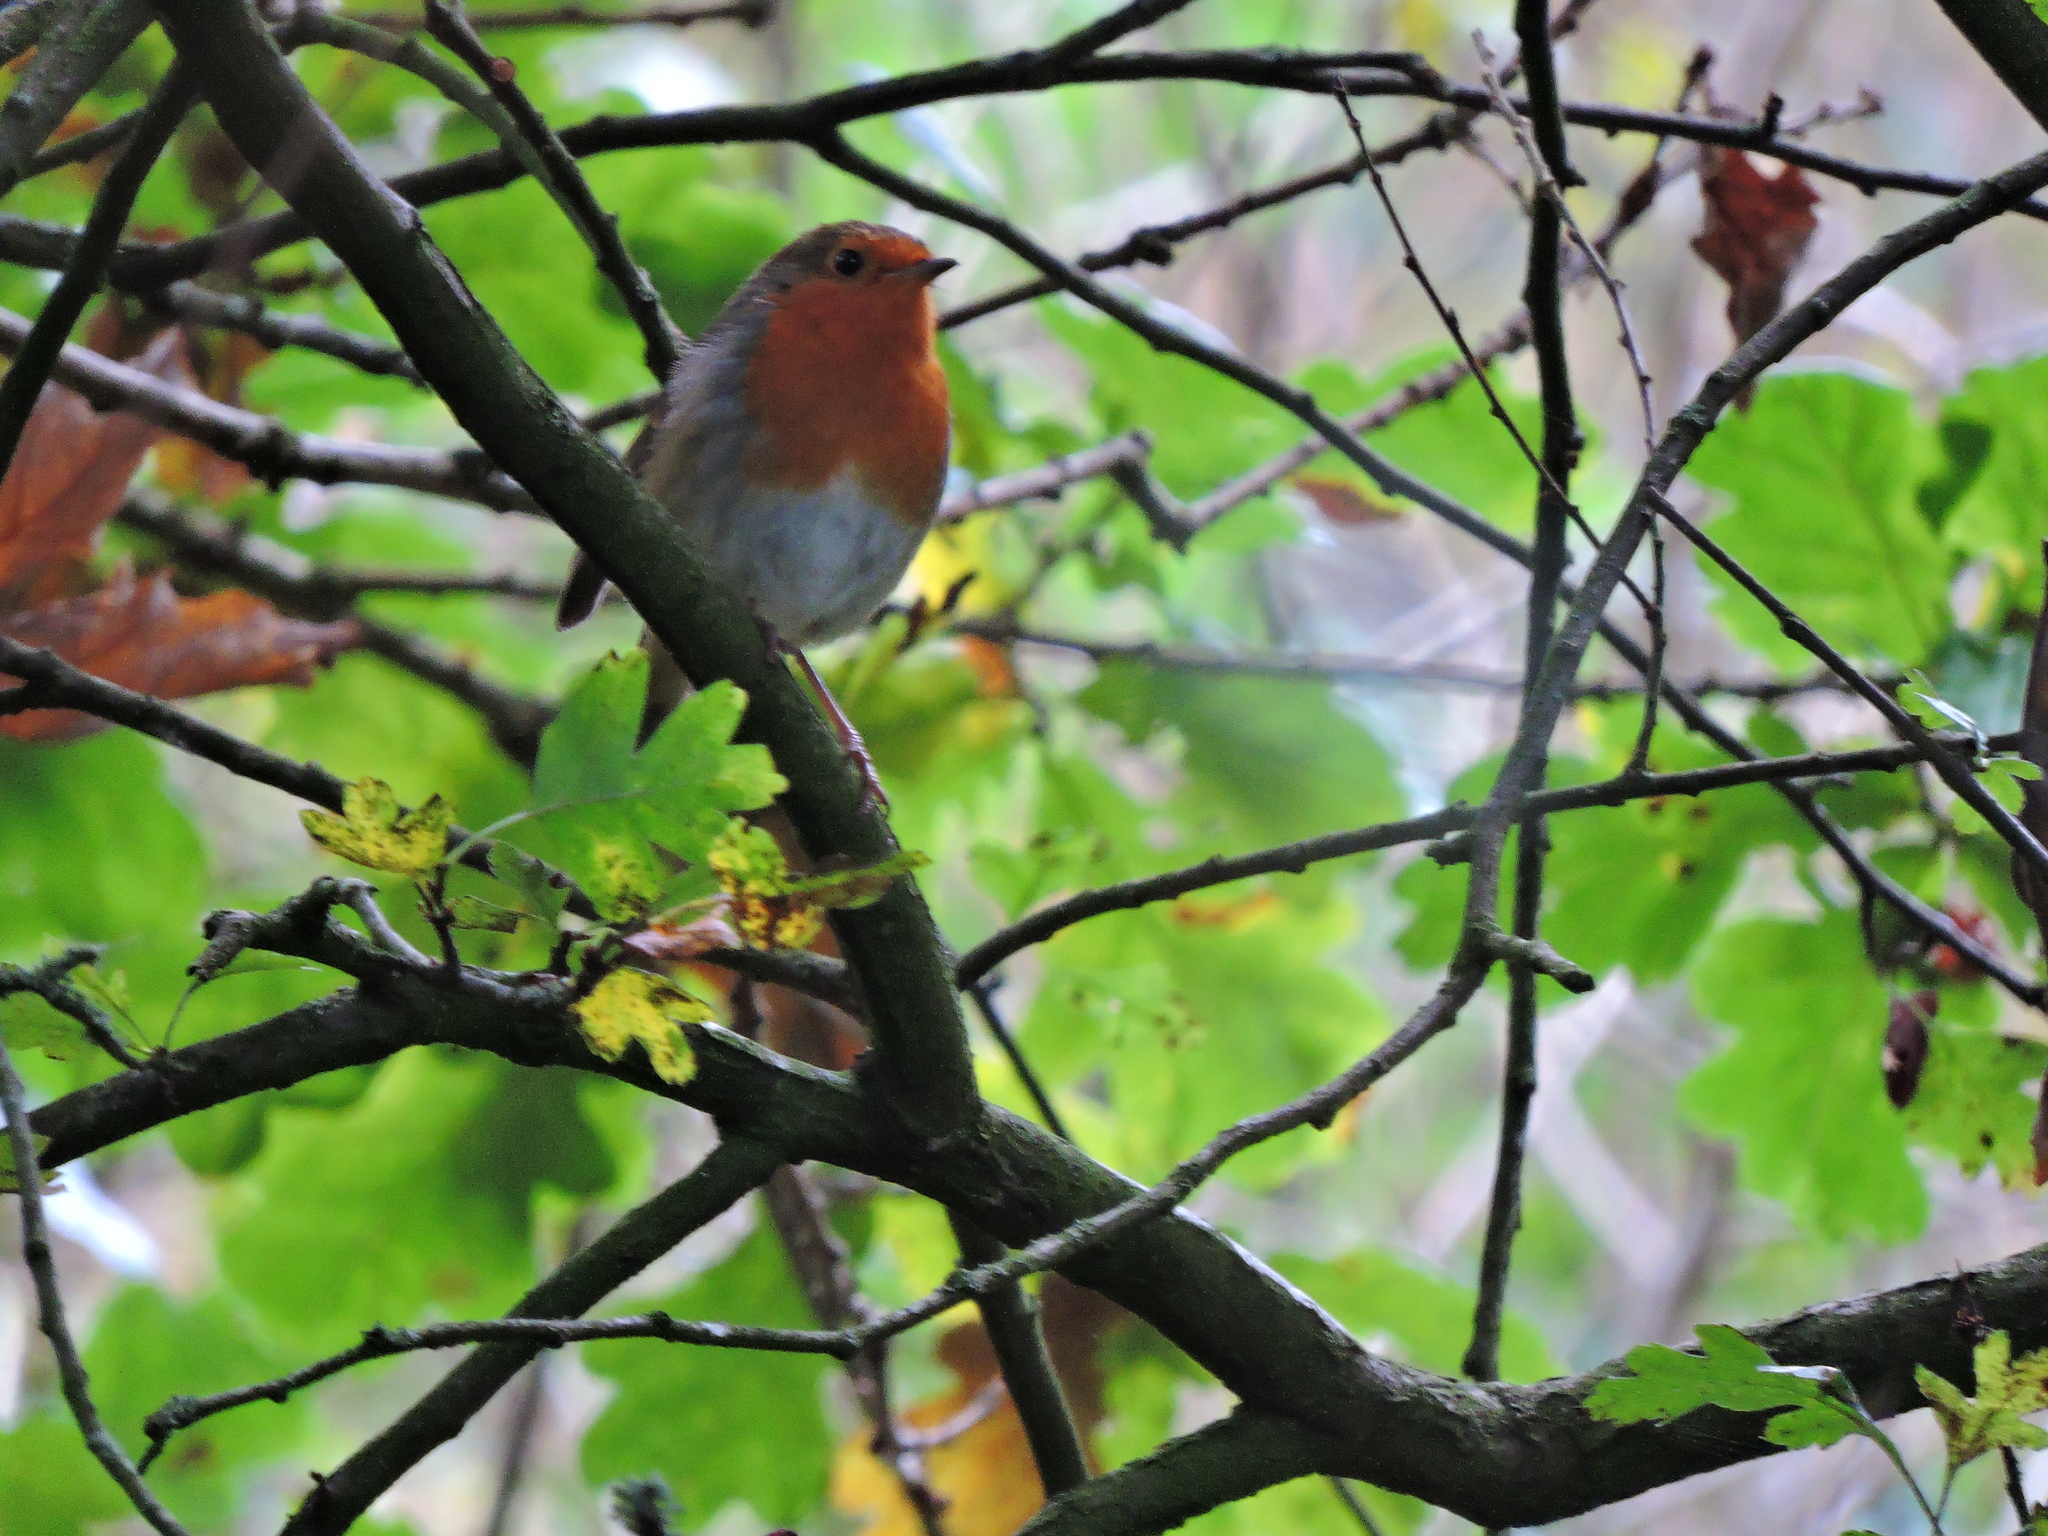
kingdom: Animalia
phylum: Chordata
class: Aves
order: Passeriformes
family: Muscicapidae
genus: Erithacus
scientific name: Erithacus rubecula
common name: European robin
